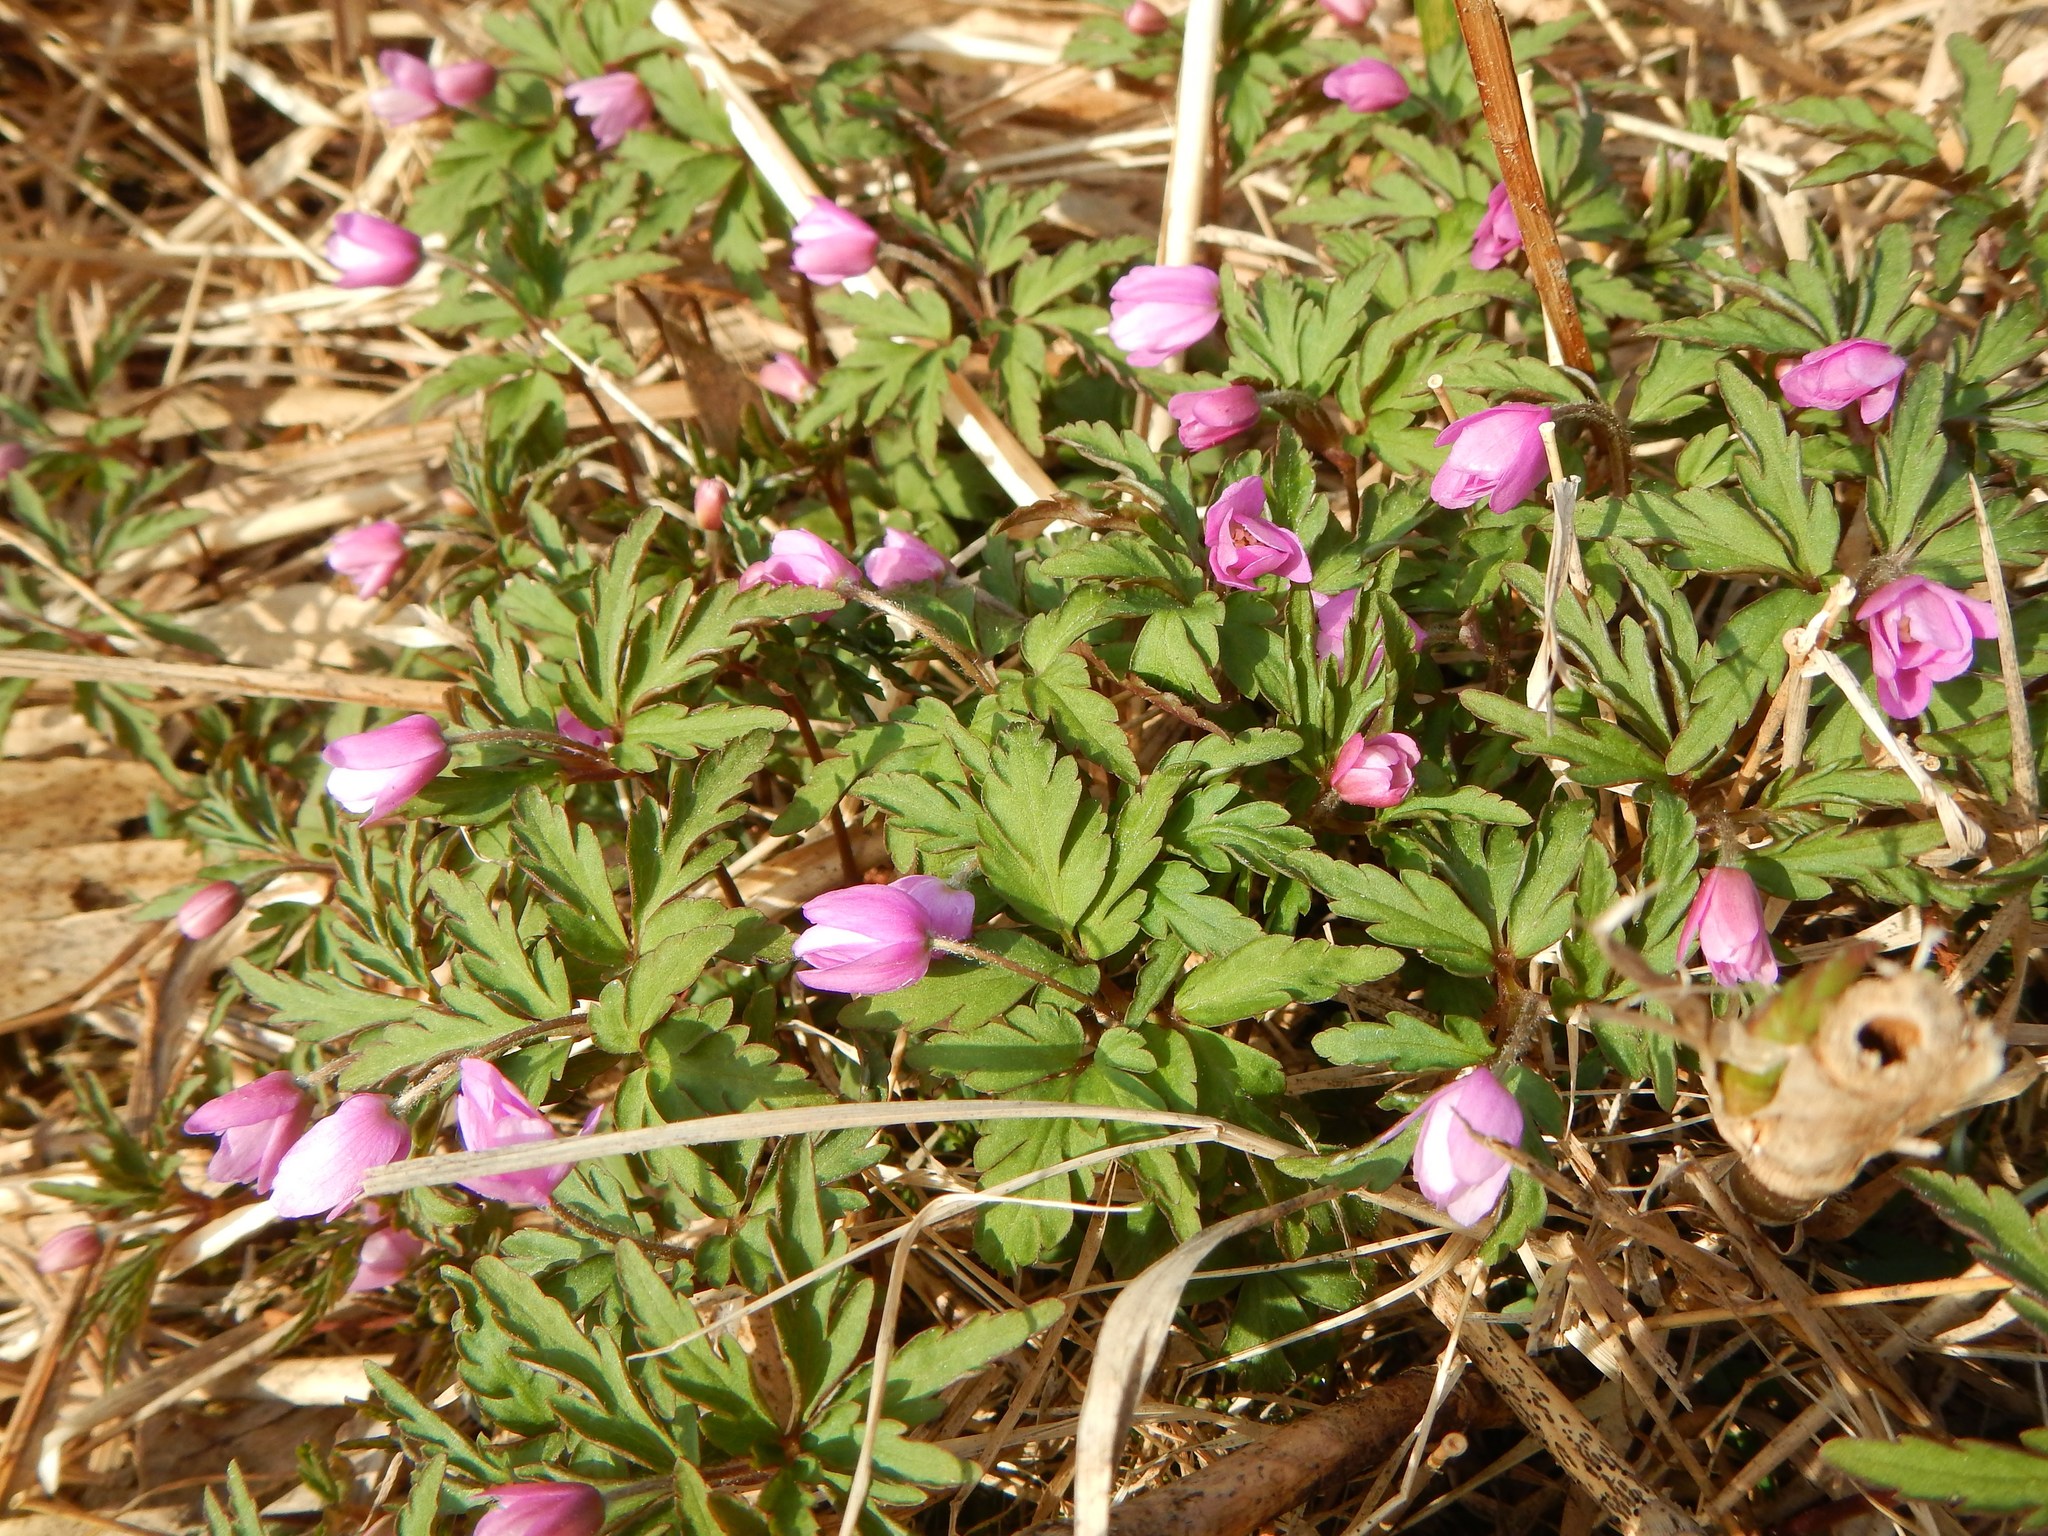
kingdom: Plantae
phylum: Tracheophyta
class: Magnoliopsida
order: Ranunculales
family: Ranunculaceae
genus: Anemone
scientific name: Anemone pseudoaltaica
